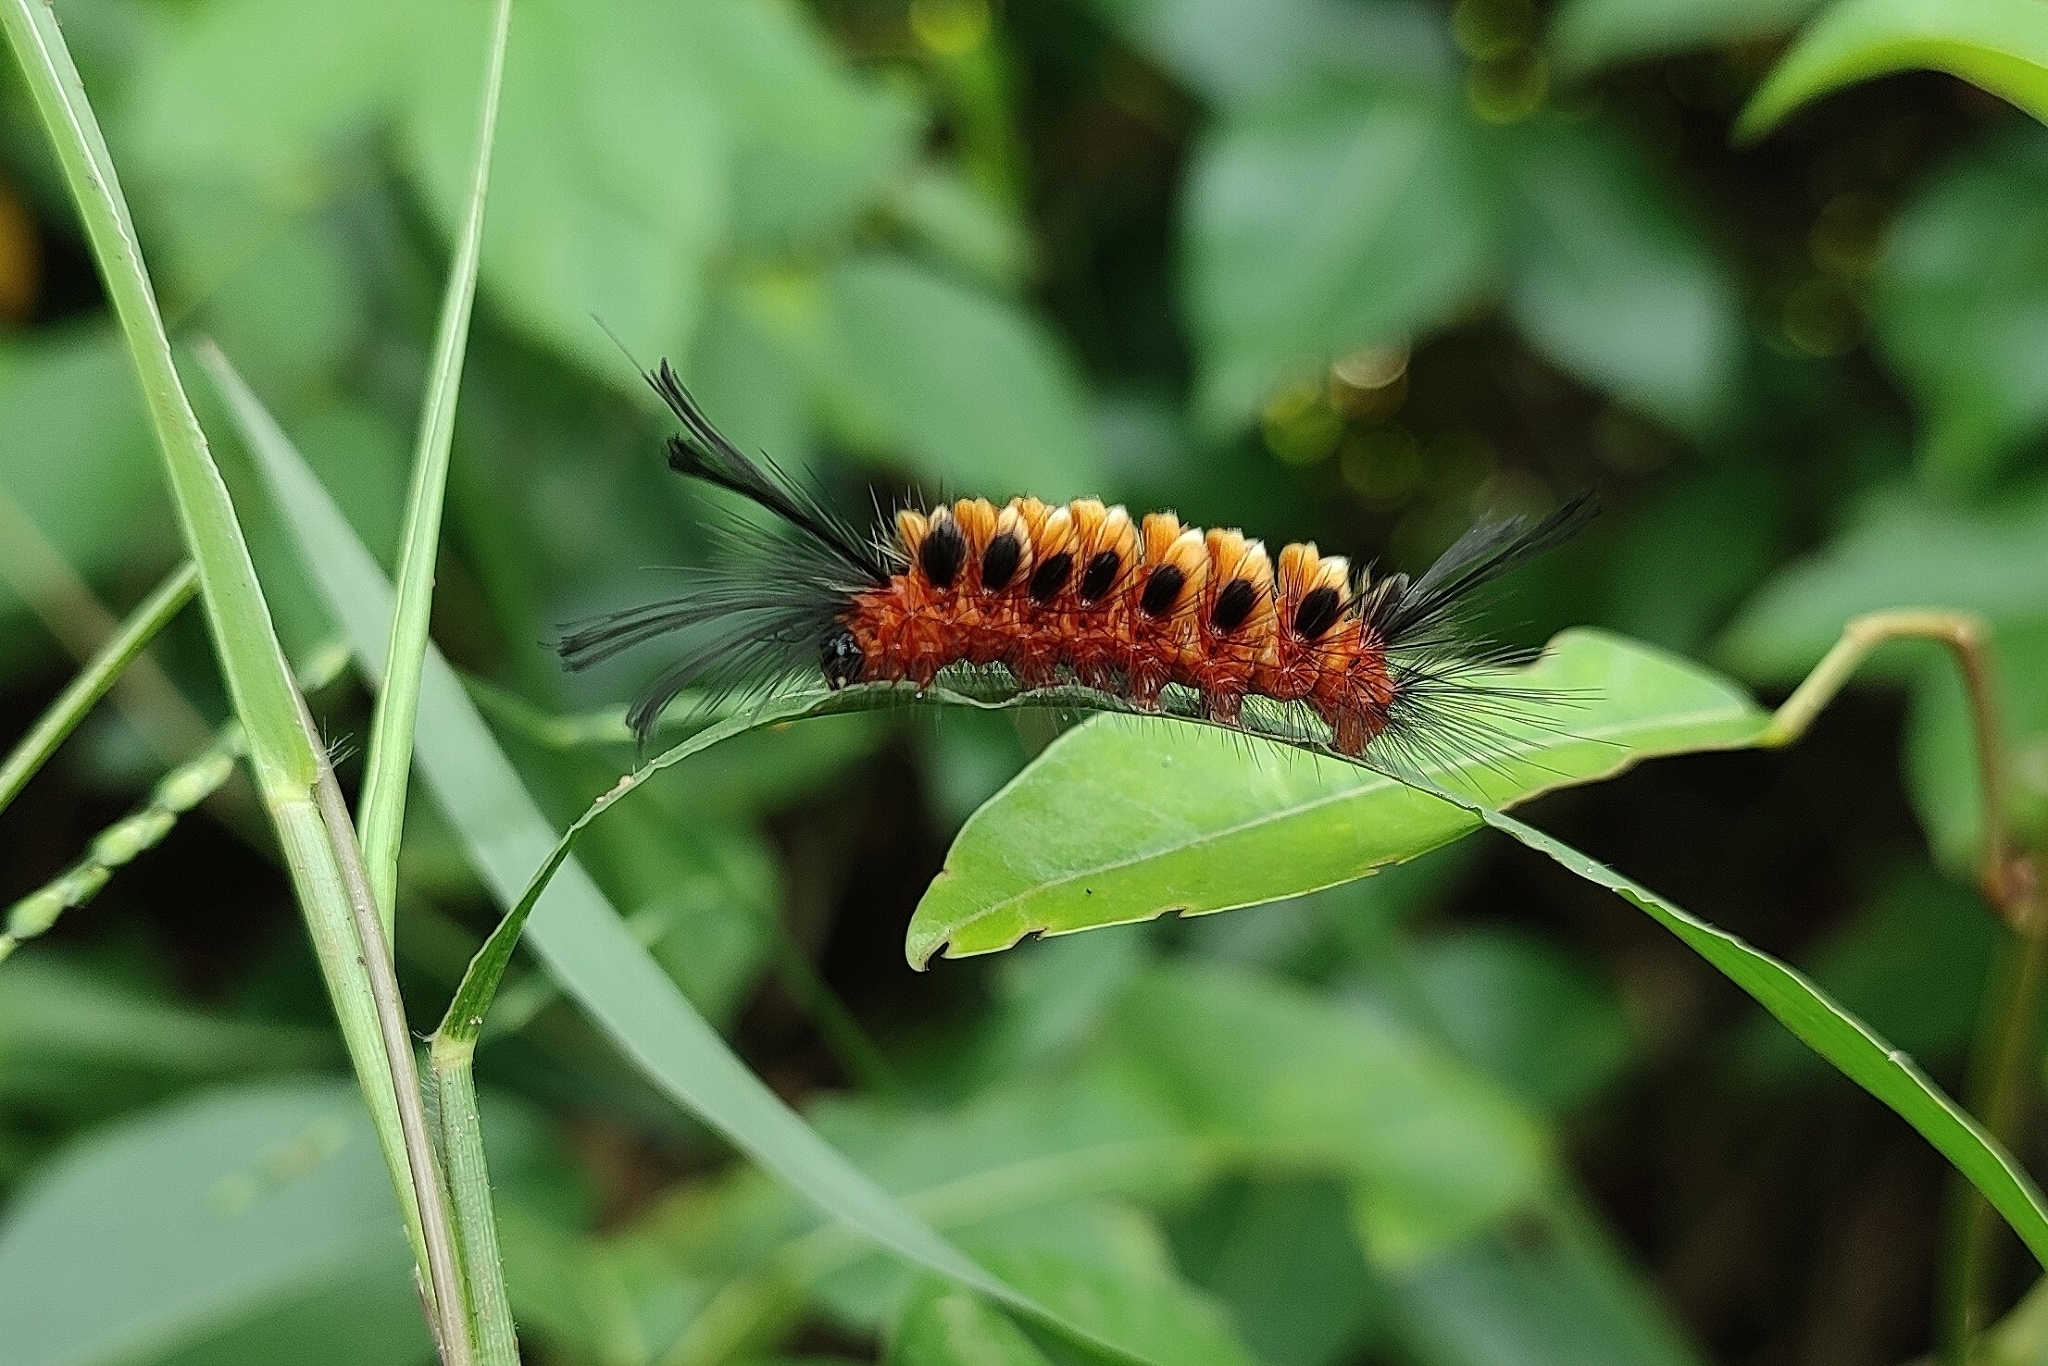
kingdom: Animalia
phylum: Arthropoda
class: Insecta
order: Lepidoptera
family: Erebidae
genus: Euchromia
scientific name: Euchromia polymena
